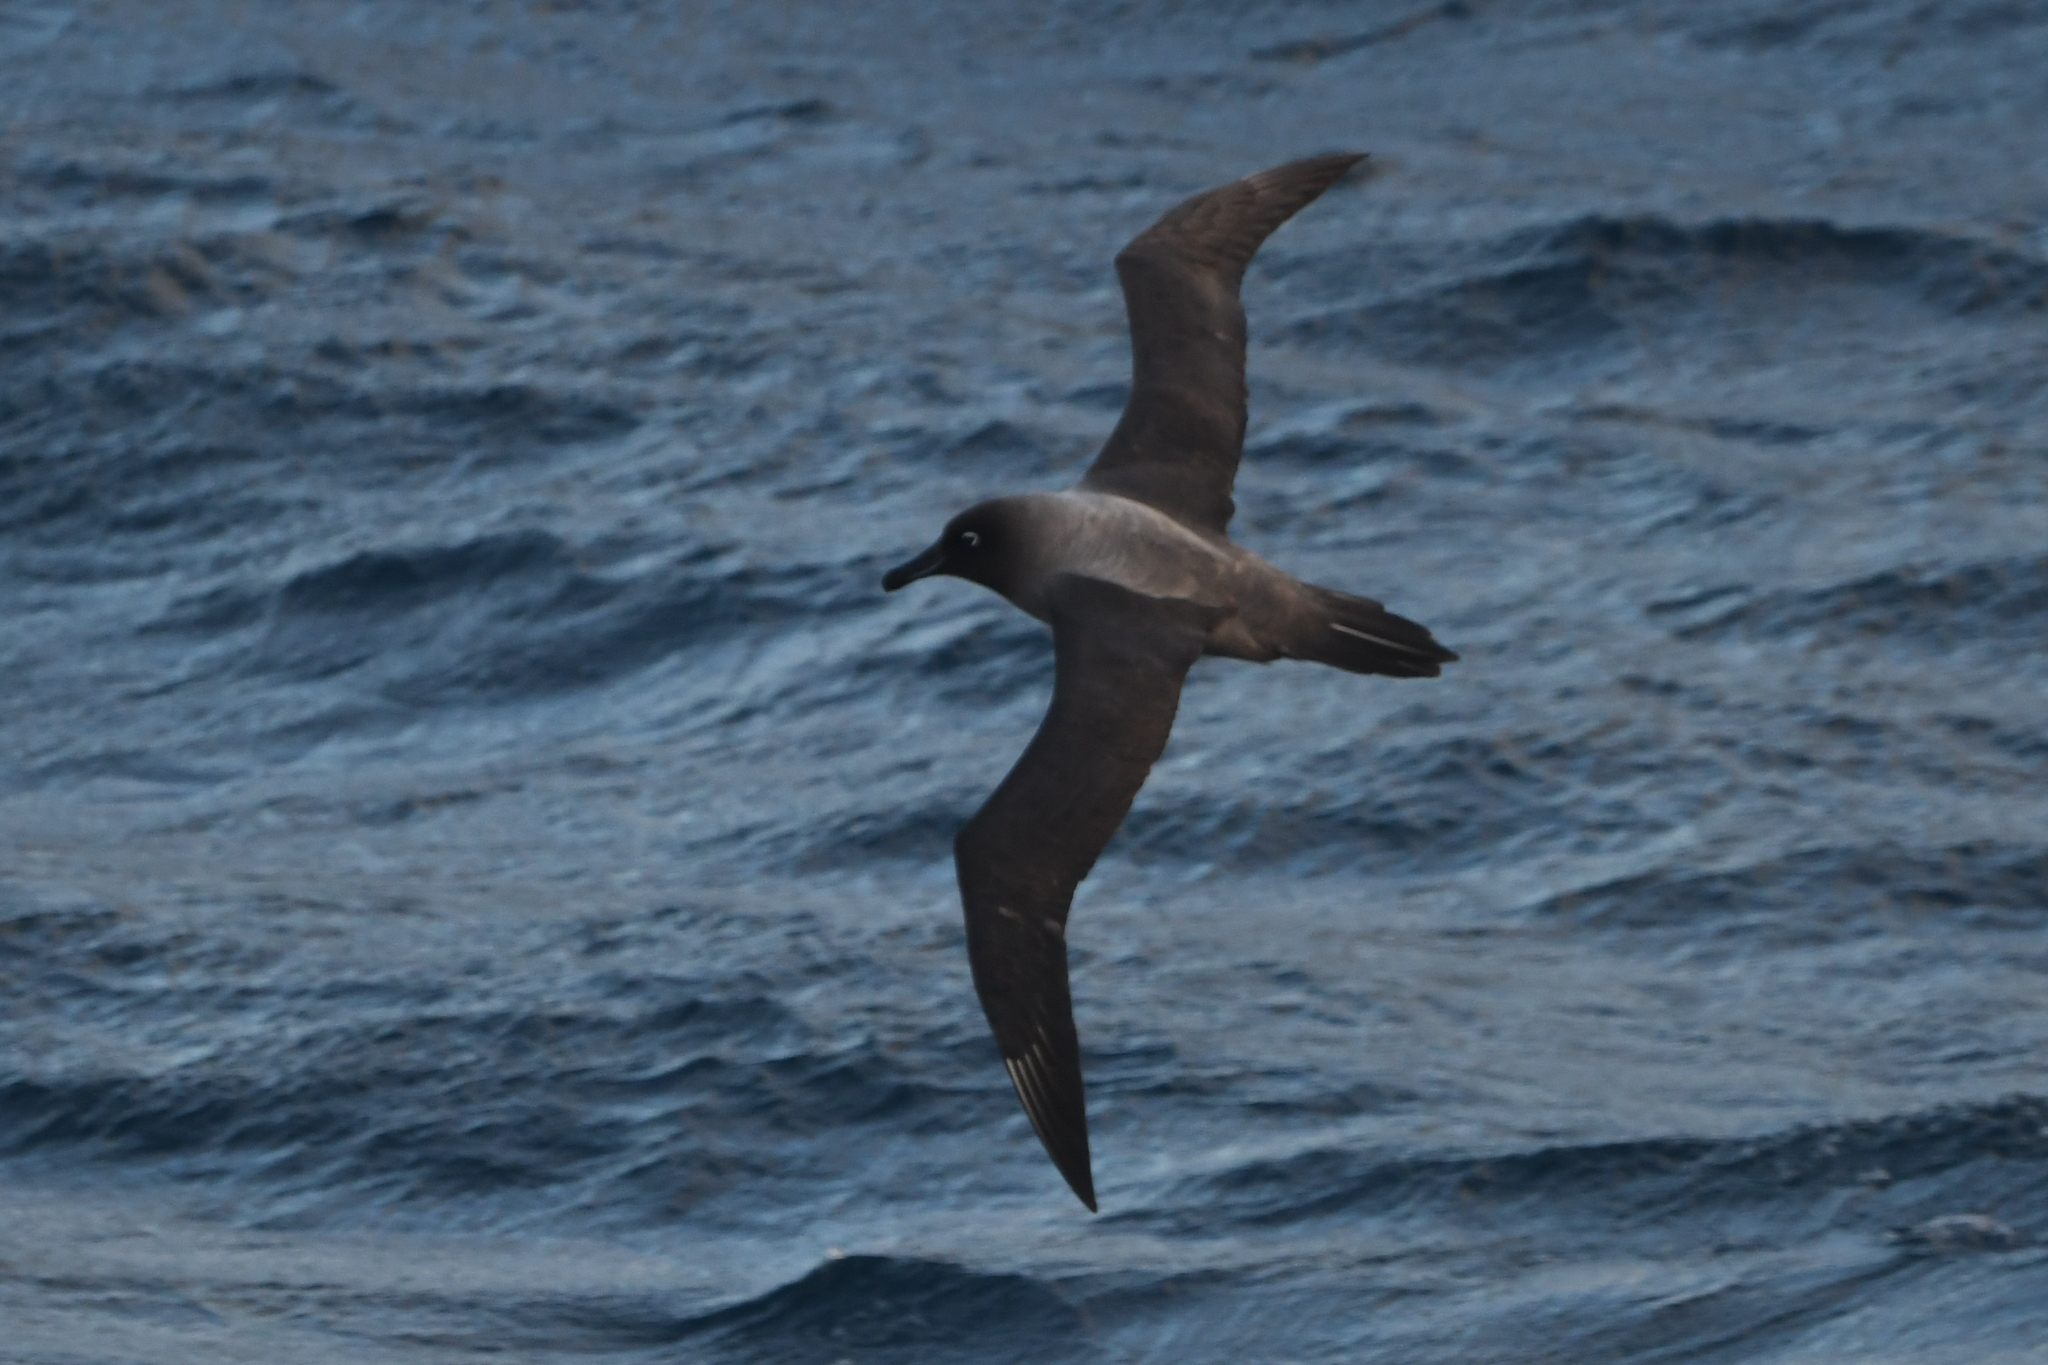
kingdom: Animalia
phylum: Chordata
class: Aves
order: Procellariiformes
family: Diomedeidae
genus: Phoebetria
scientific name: Phoebetria palpebrata
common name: Light-mantled albatross
